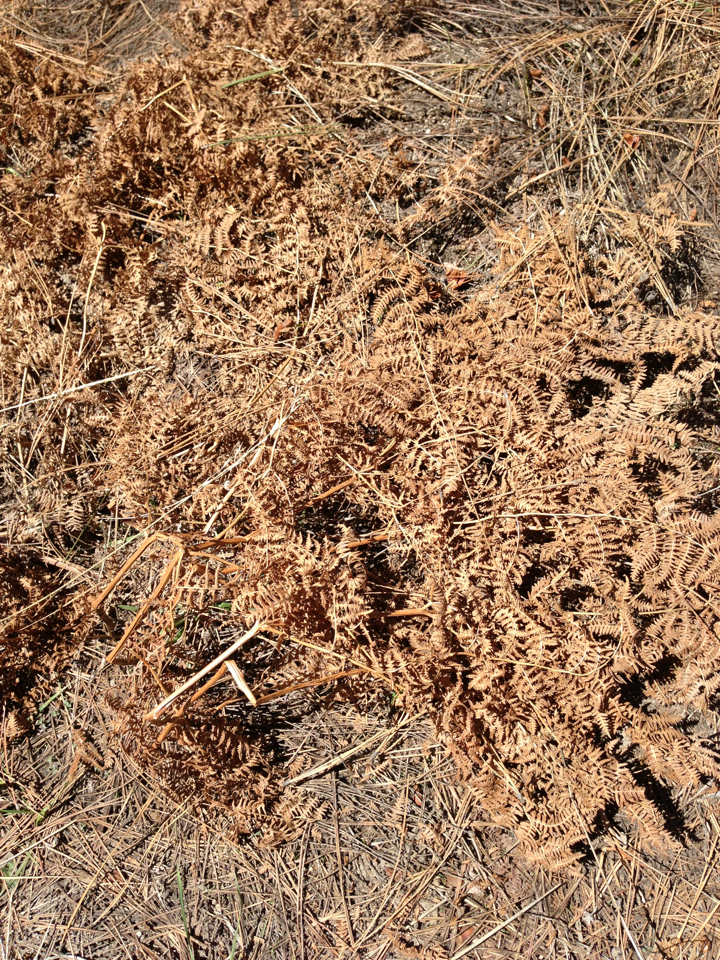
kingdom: Plantae
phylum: Tracheophyta
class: Polypodiopsida
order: Polypodiales
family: Dennstaedtiaceae
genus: Pteridium
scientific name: Pteridium aquilinum
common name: Bracken
